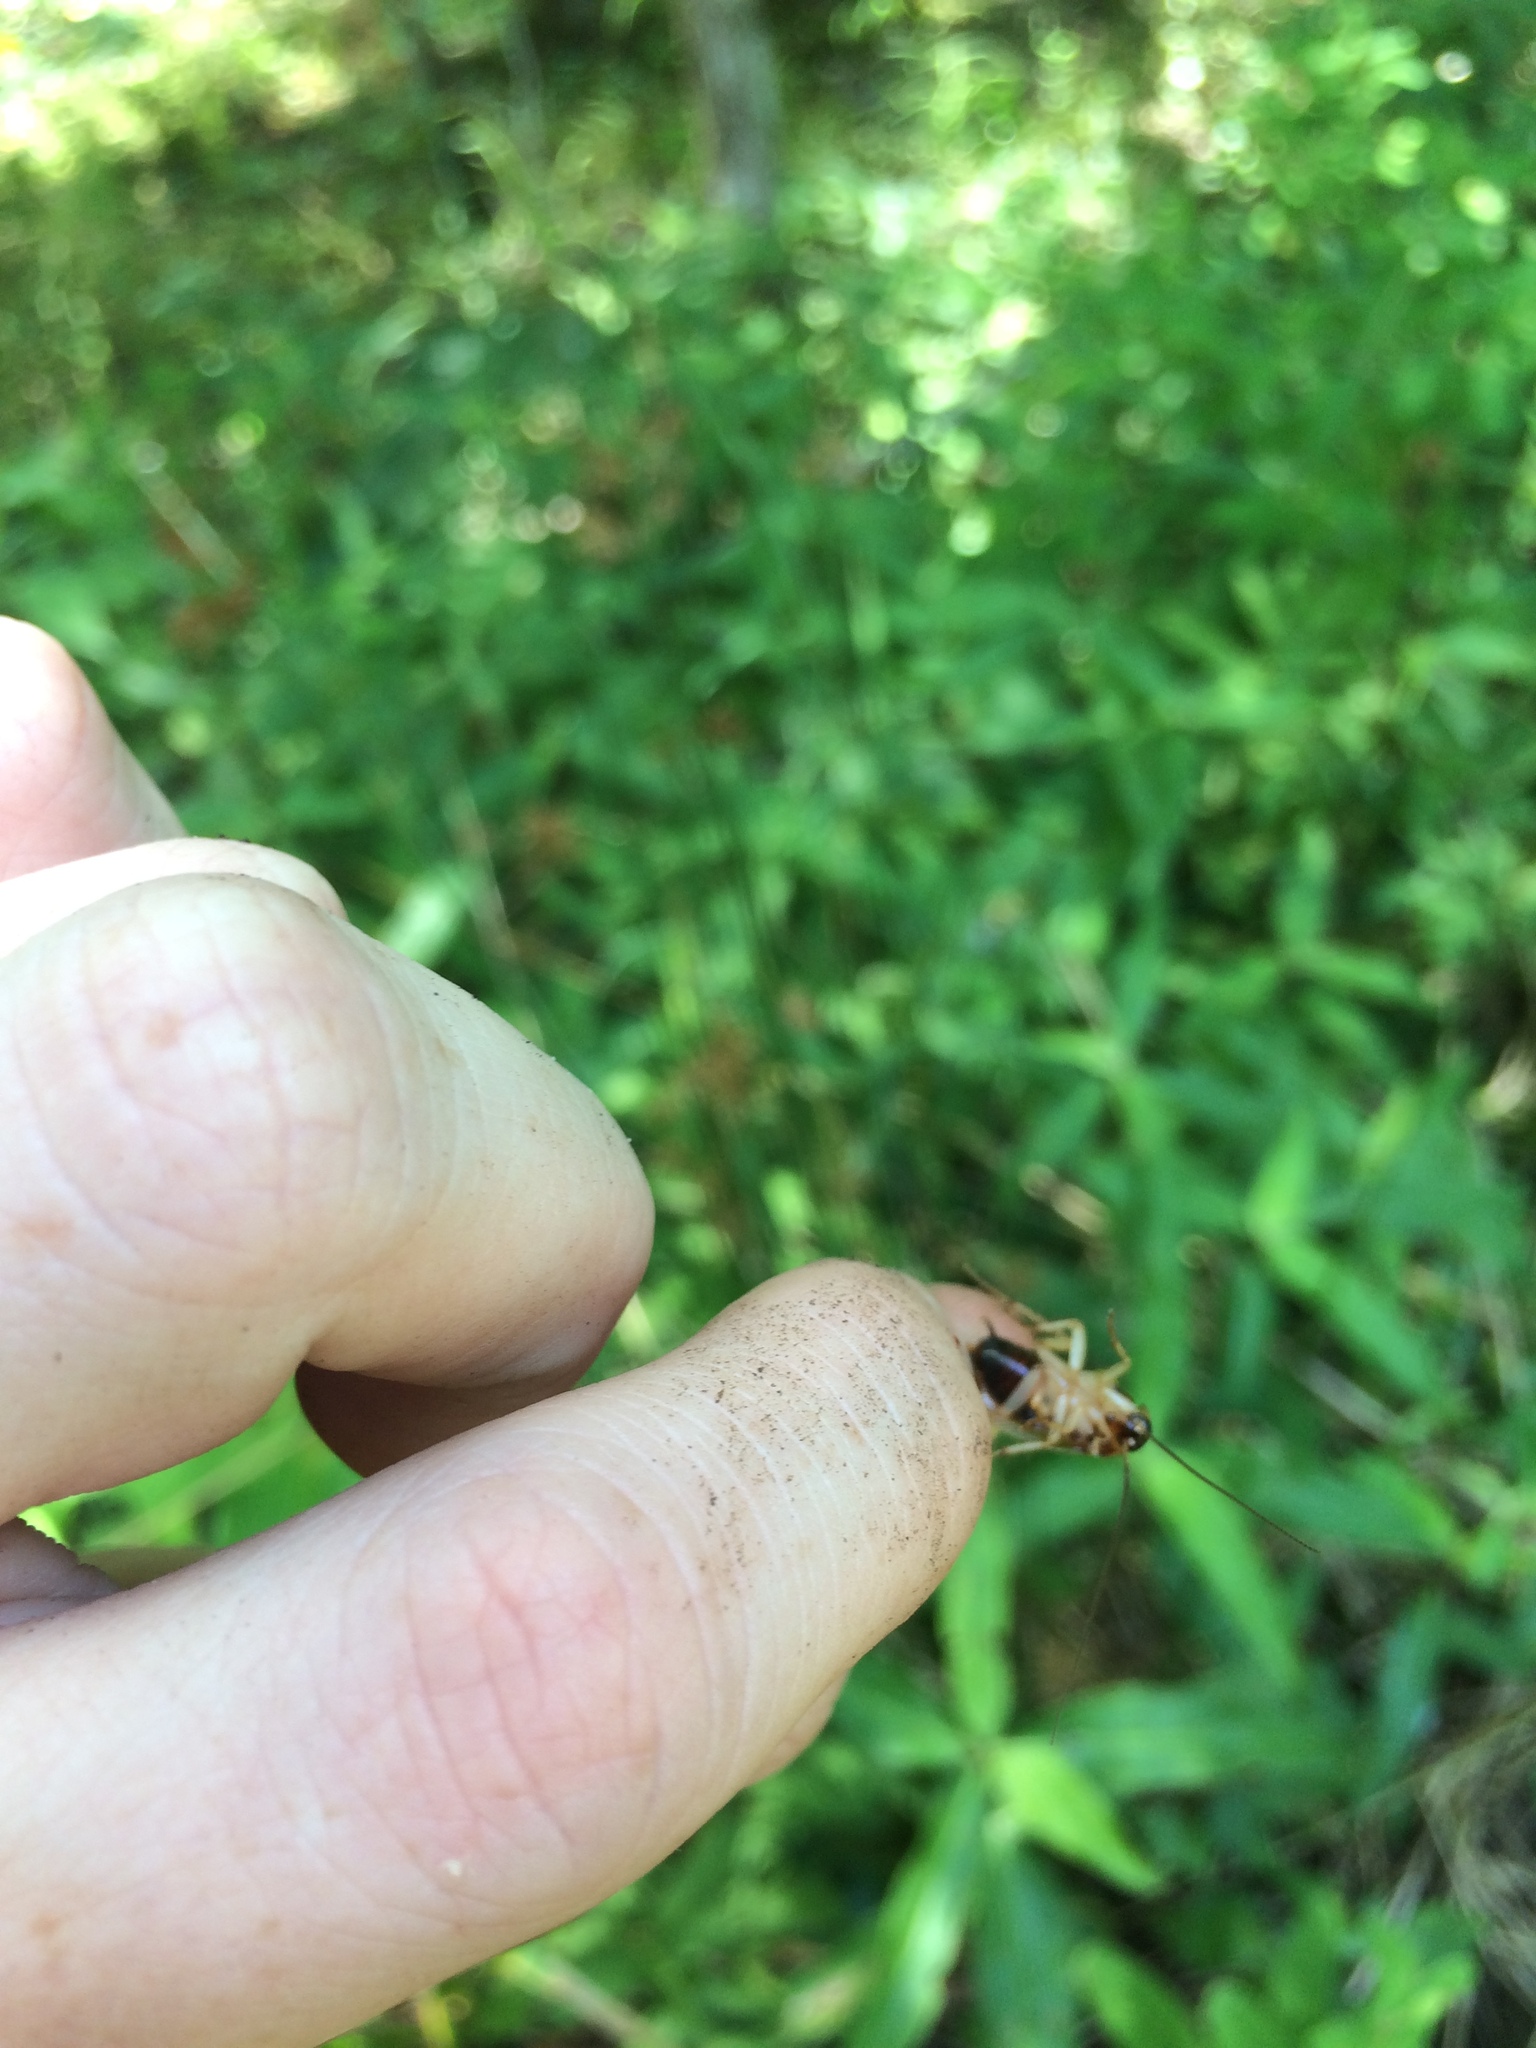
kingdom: Animalia
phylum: Arthropoda
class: Insecta
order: Blattodea
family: Ectobiidae
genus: Ischnoptera
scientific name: Ischnoptera bilunata
